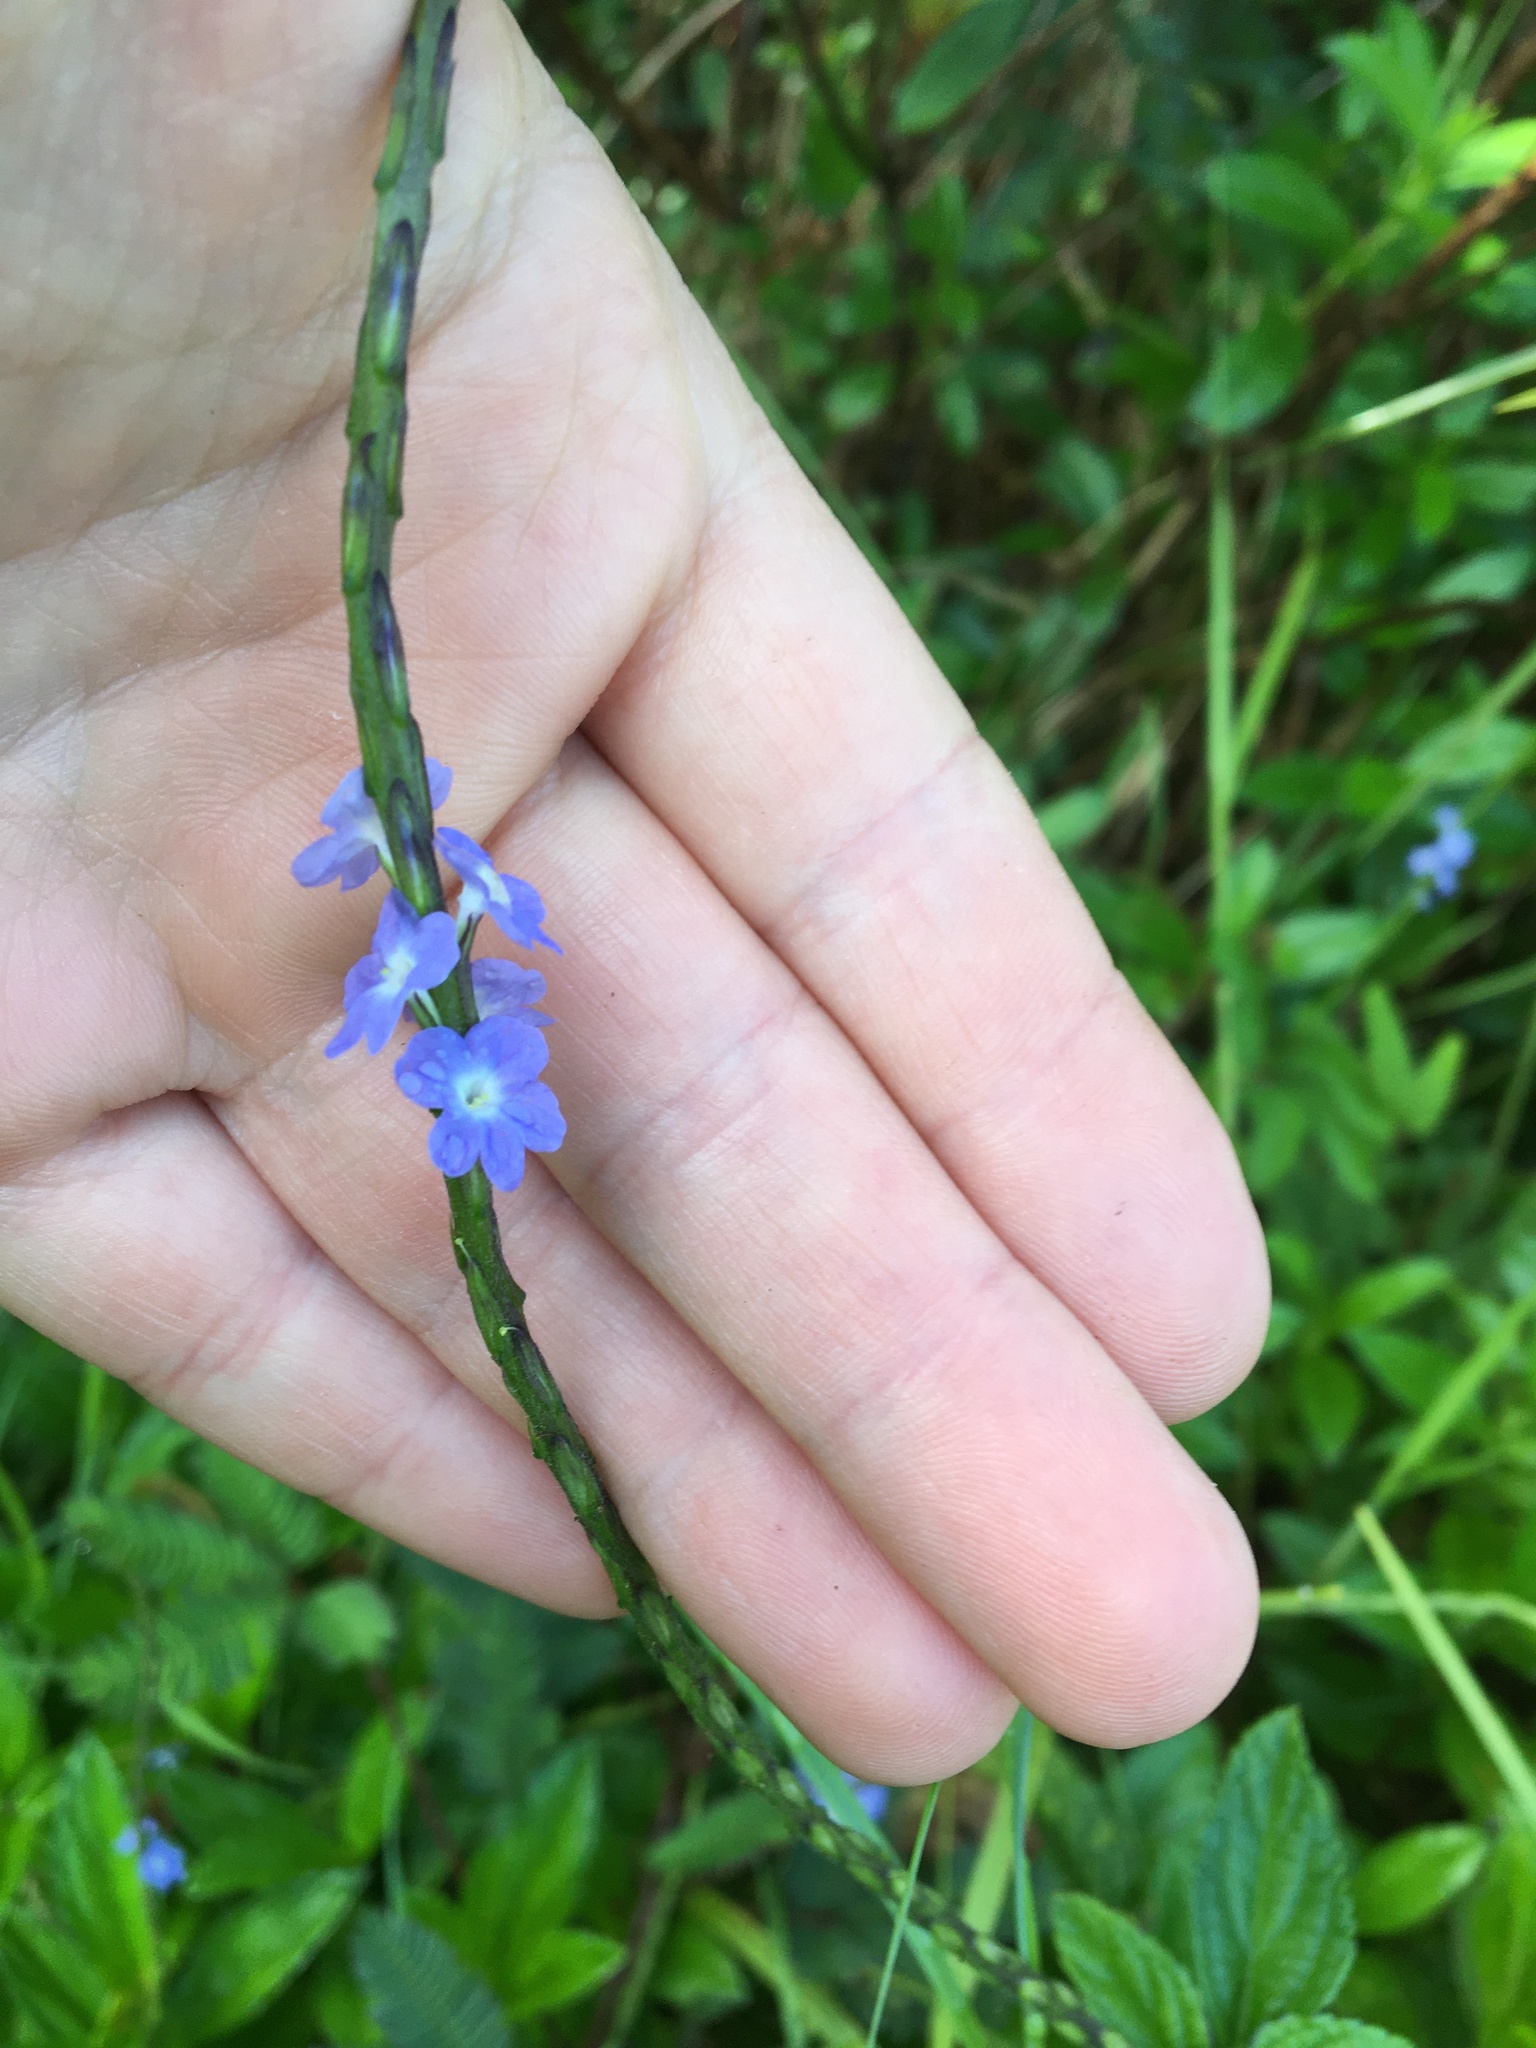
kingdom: Plantae
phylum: Tracheophyta
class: Magnoliopsida
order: Lamiales
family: Verbenaceae
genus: Stachytarpheta
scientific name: Stachytarpheta cayennensis
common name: Cayenne porterweed
